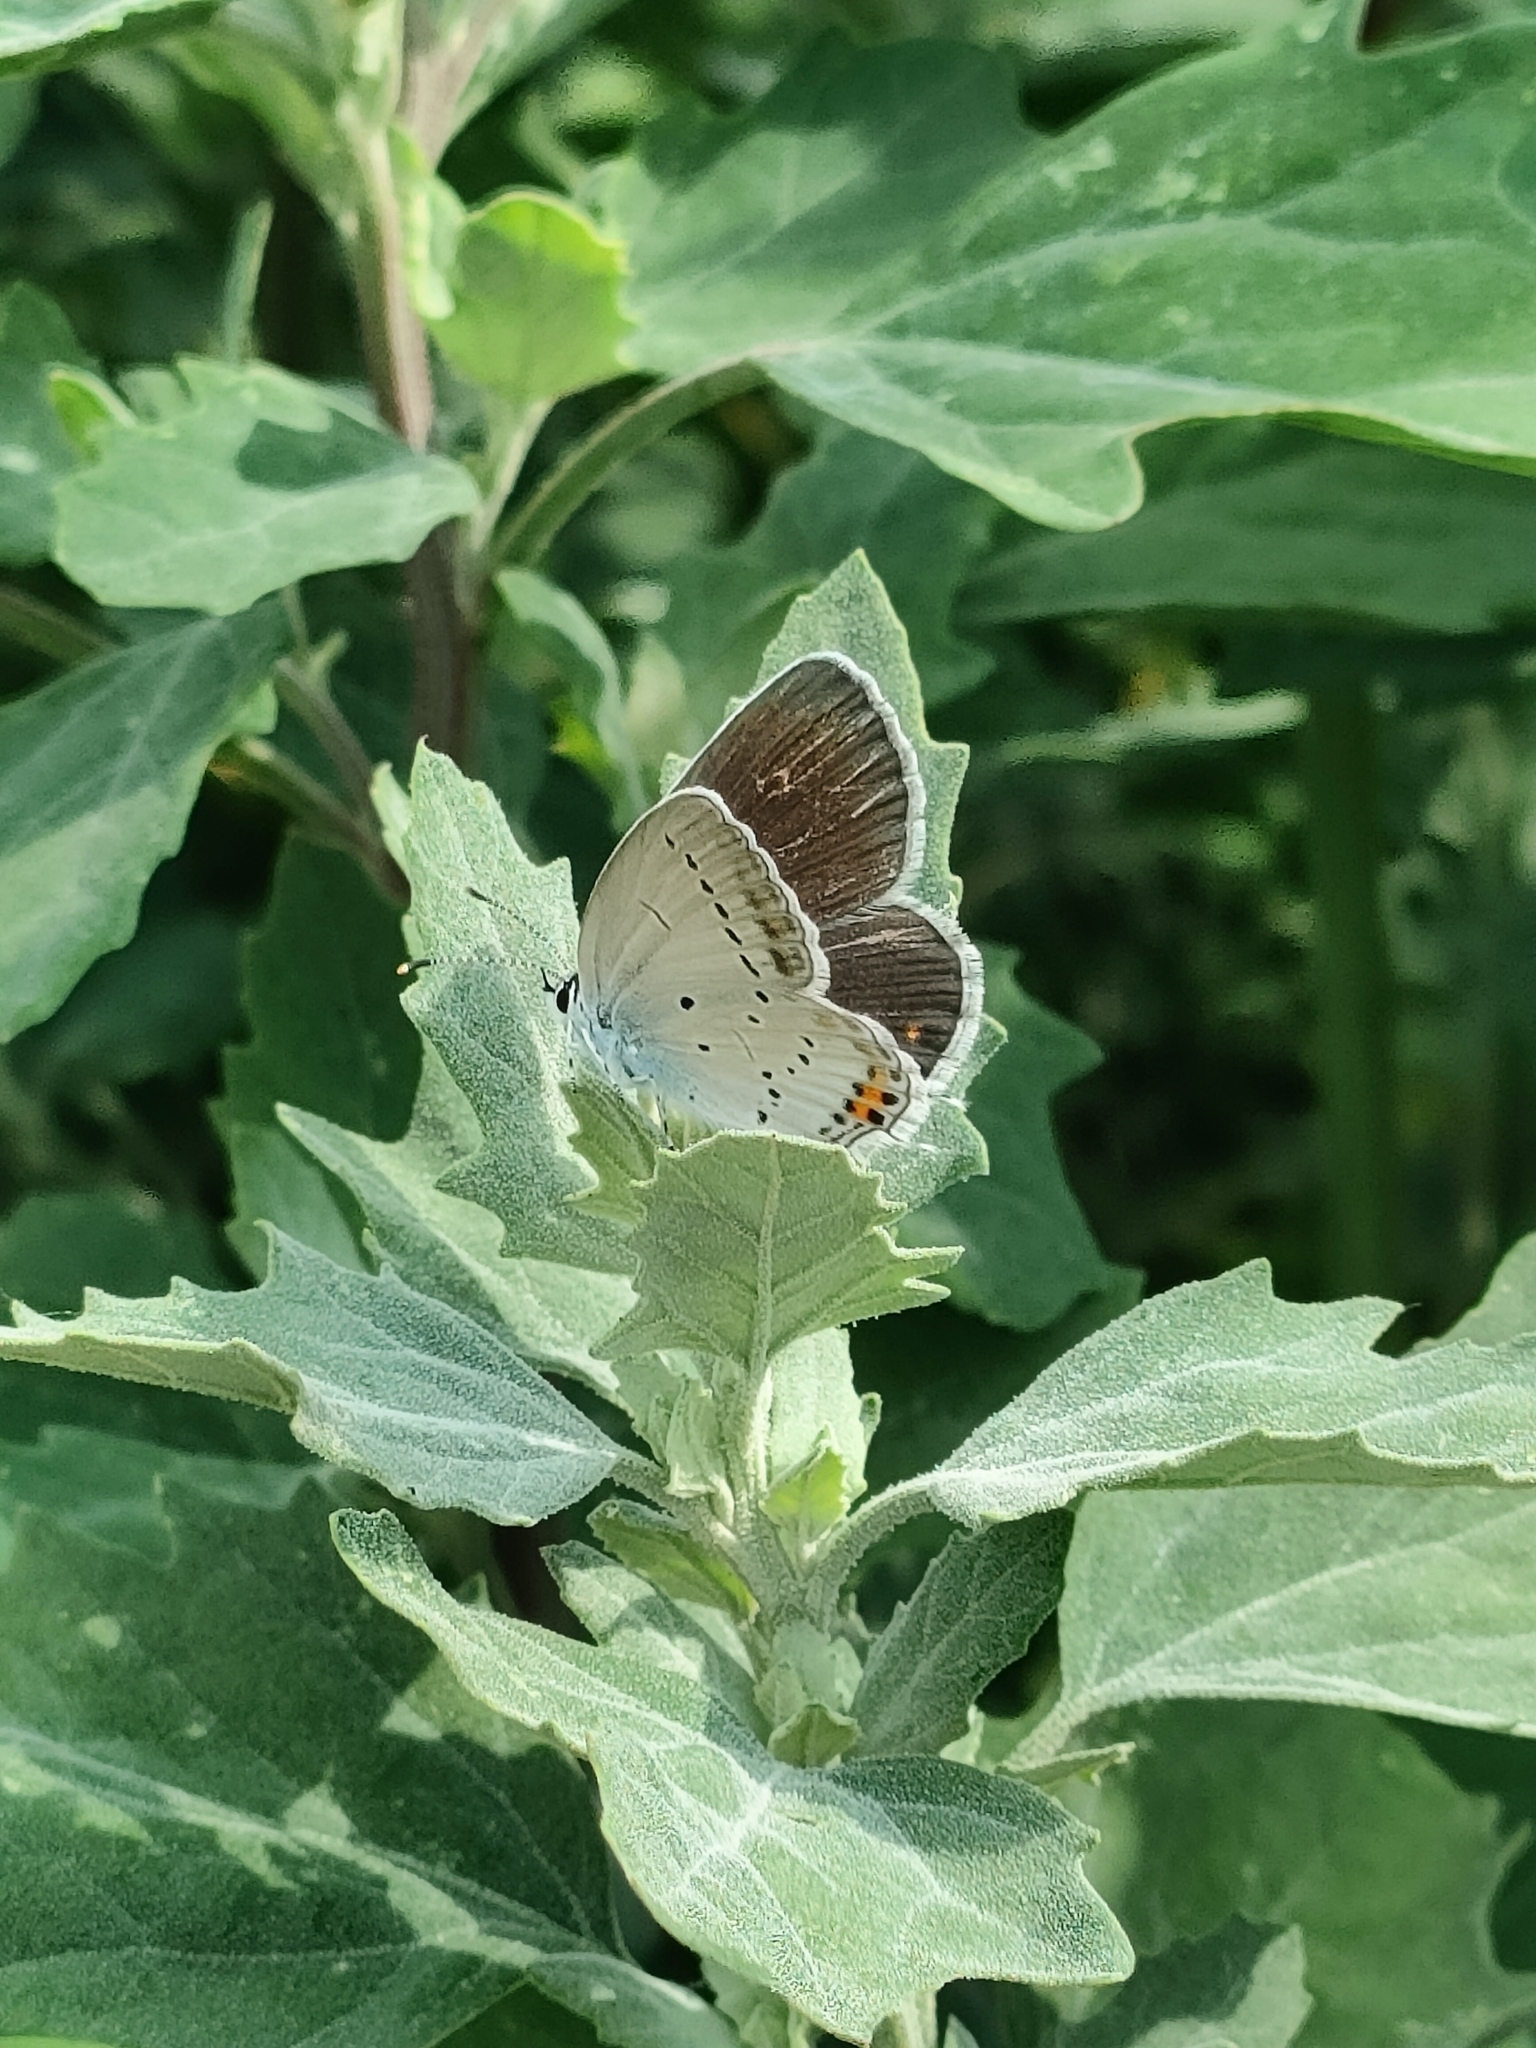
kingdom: Animalia
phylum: Arthropoda
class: Insecta
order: Lepidoptera
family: Lycaenidae
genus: Elkalyce
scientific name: Elkalyce argiades
